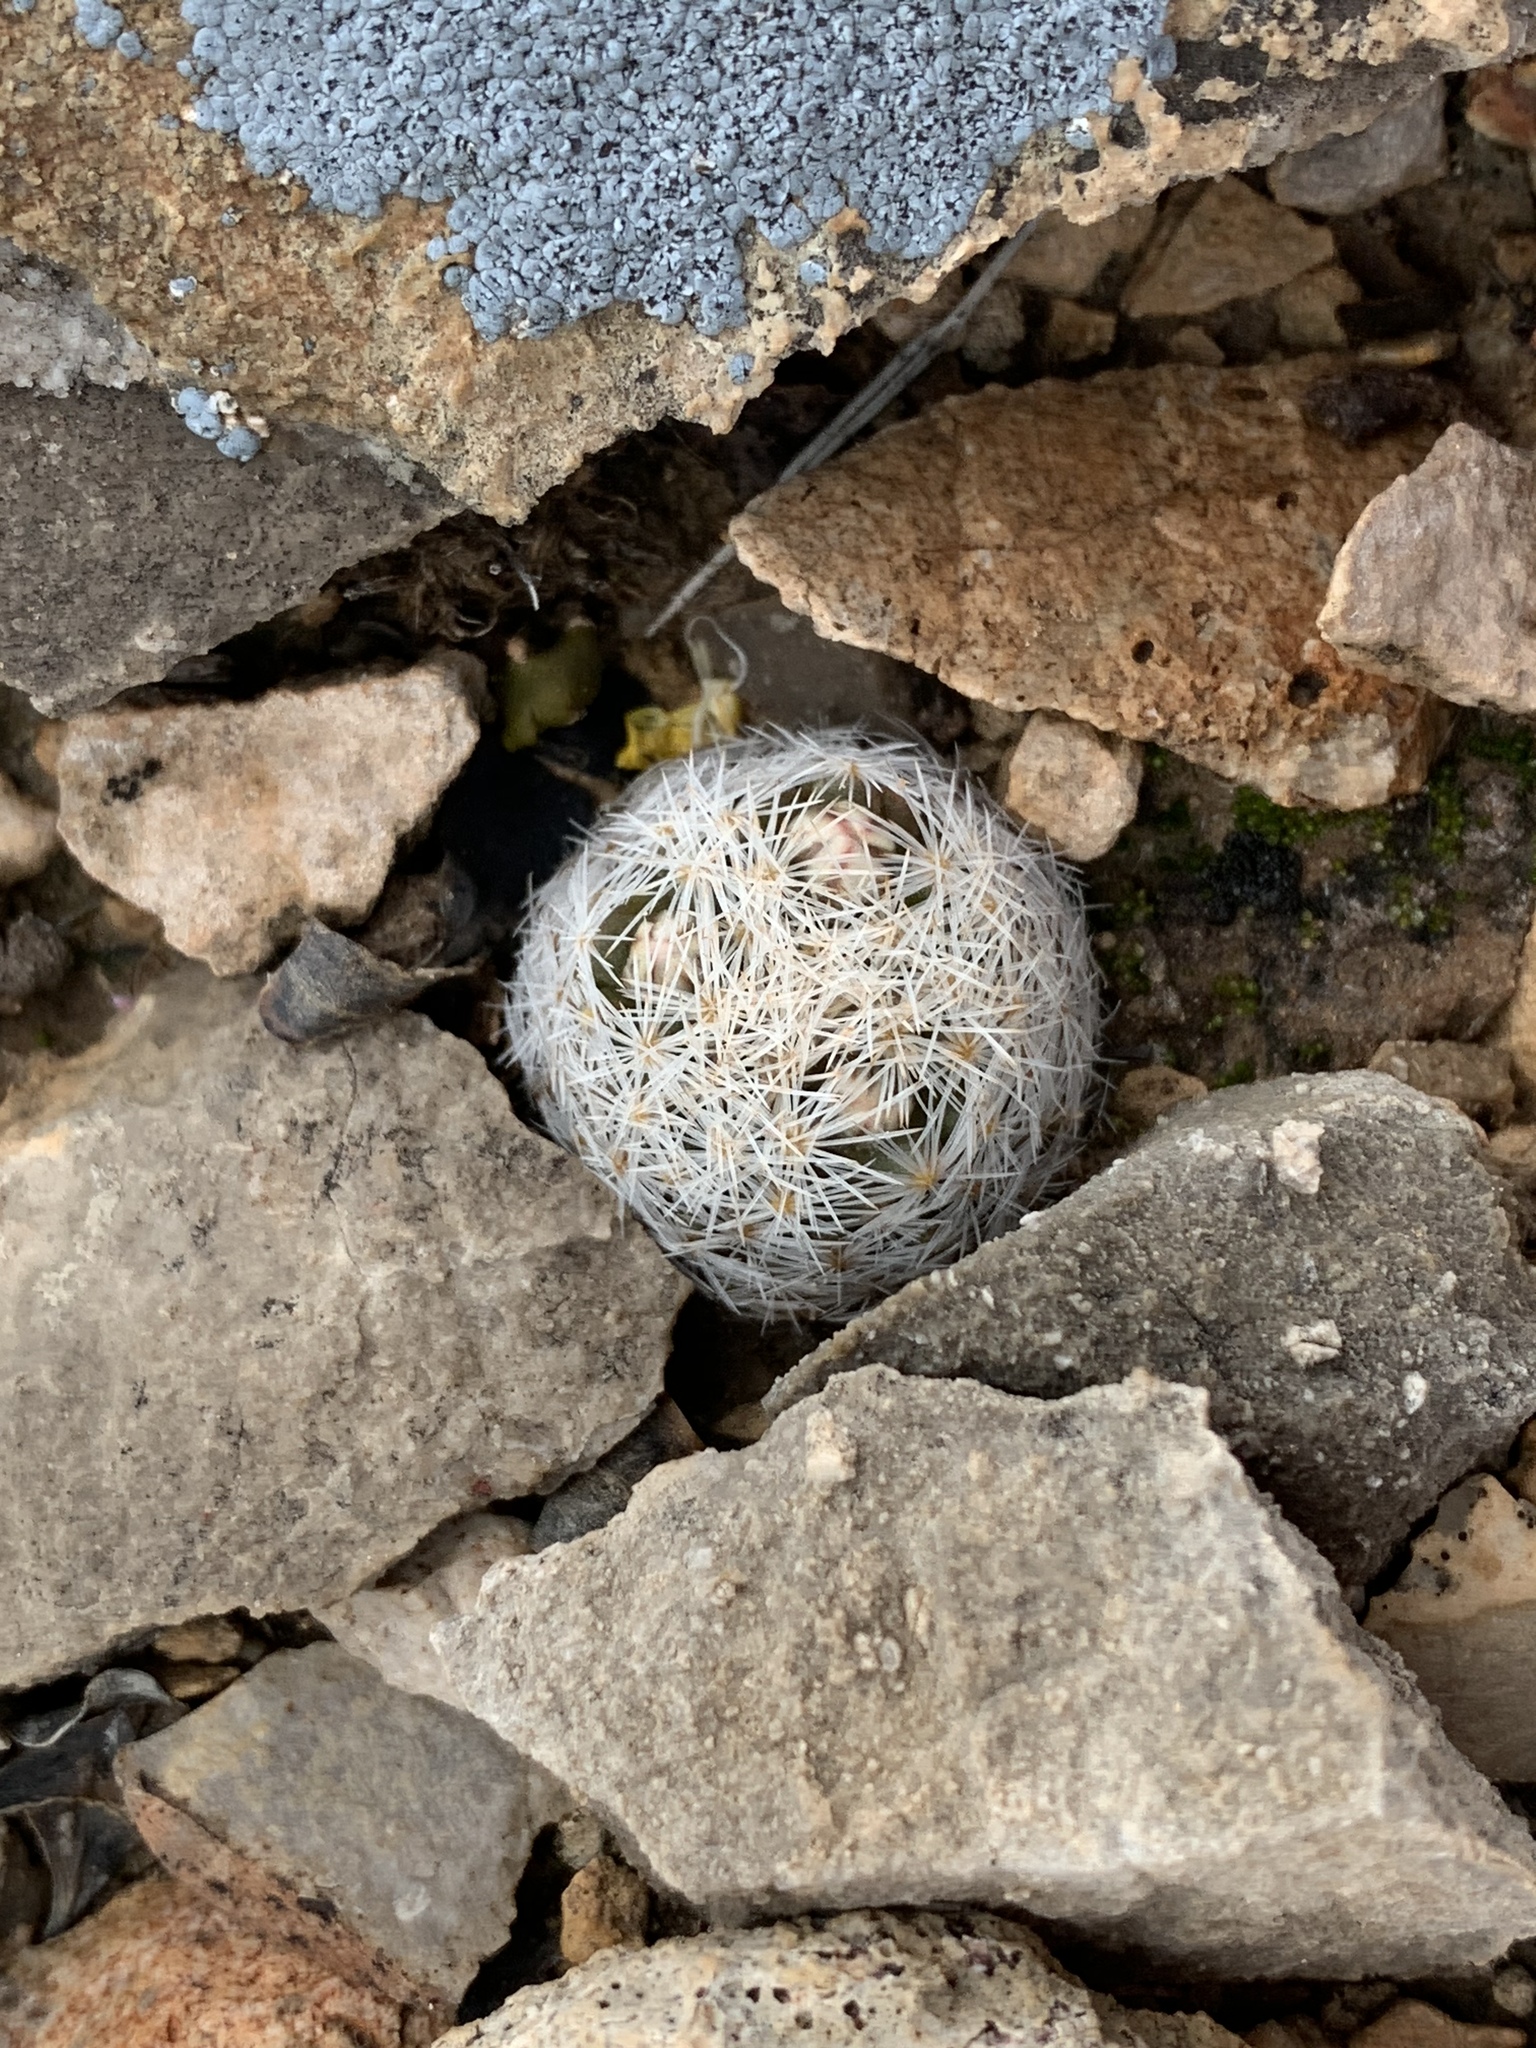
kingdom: Plantae
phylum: Tracheophyta
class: Magnoliopsida
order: Caryophyllales
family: Cactaceae
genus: Mammillaria
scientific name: Mammillaria lasiacantha
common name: Lace-spine nipple cactus
